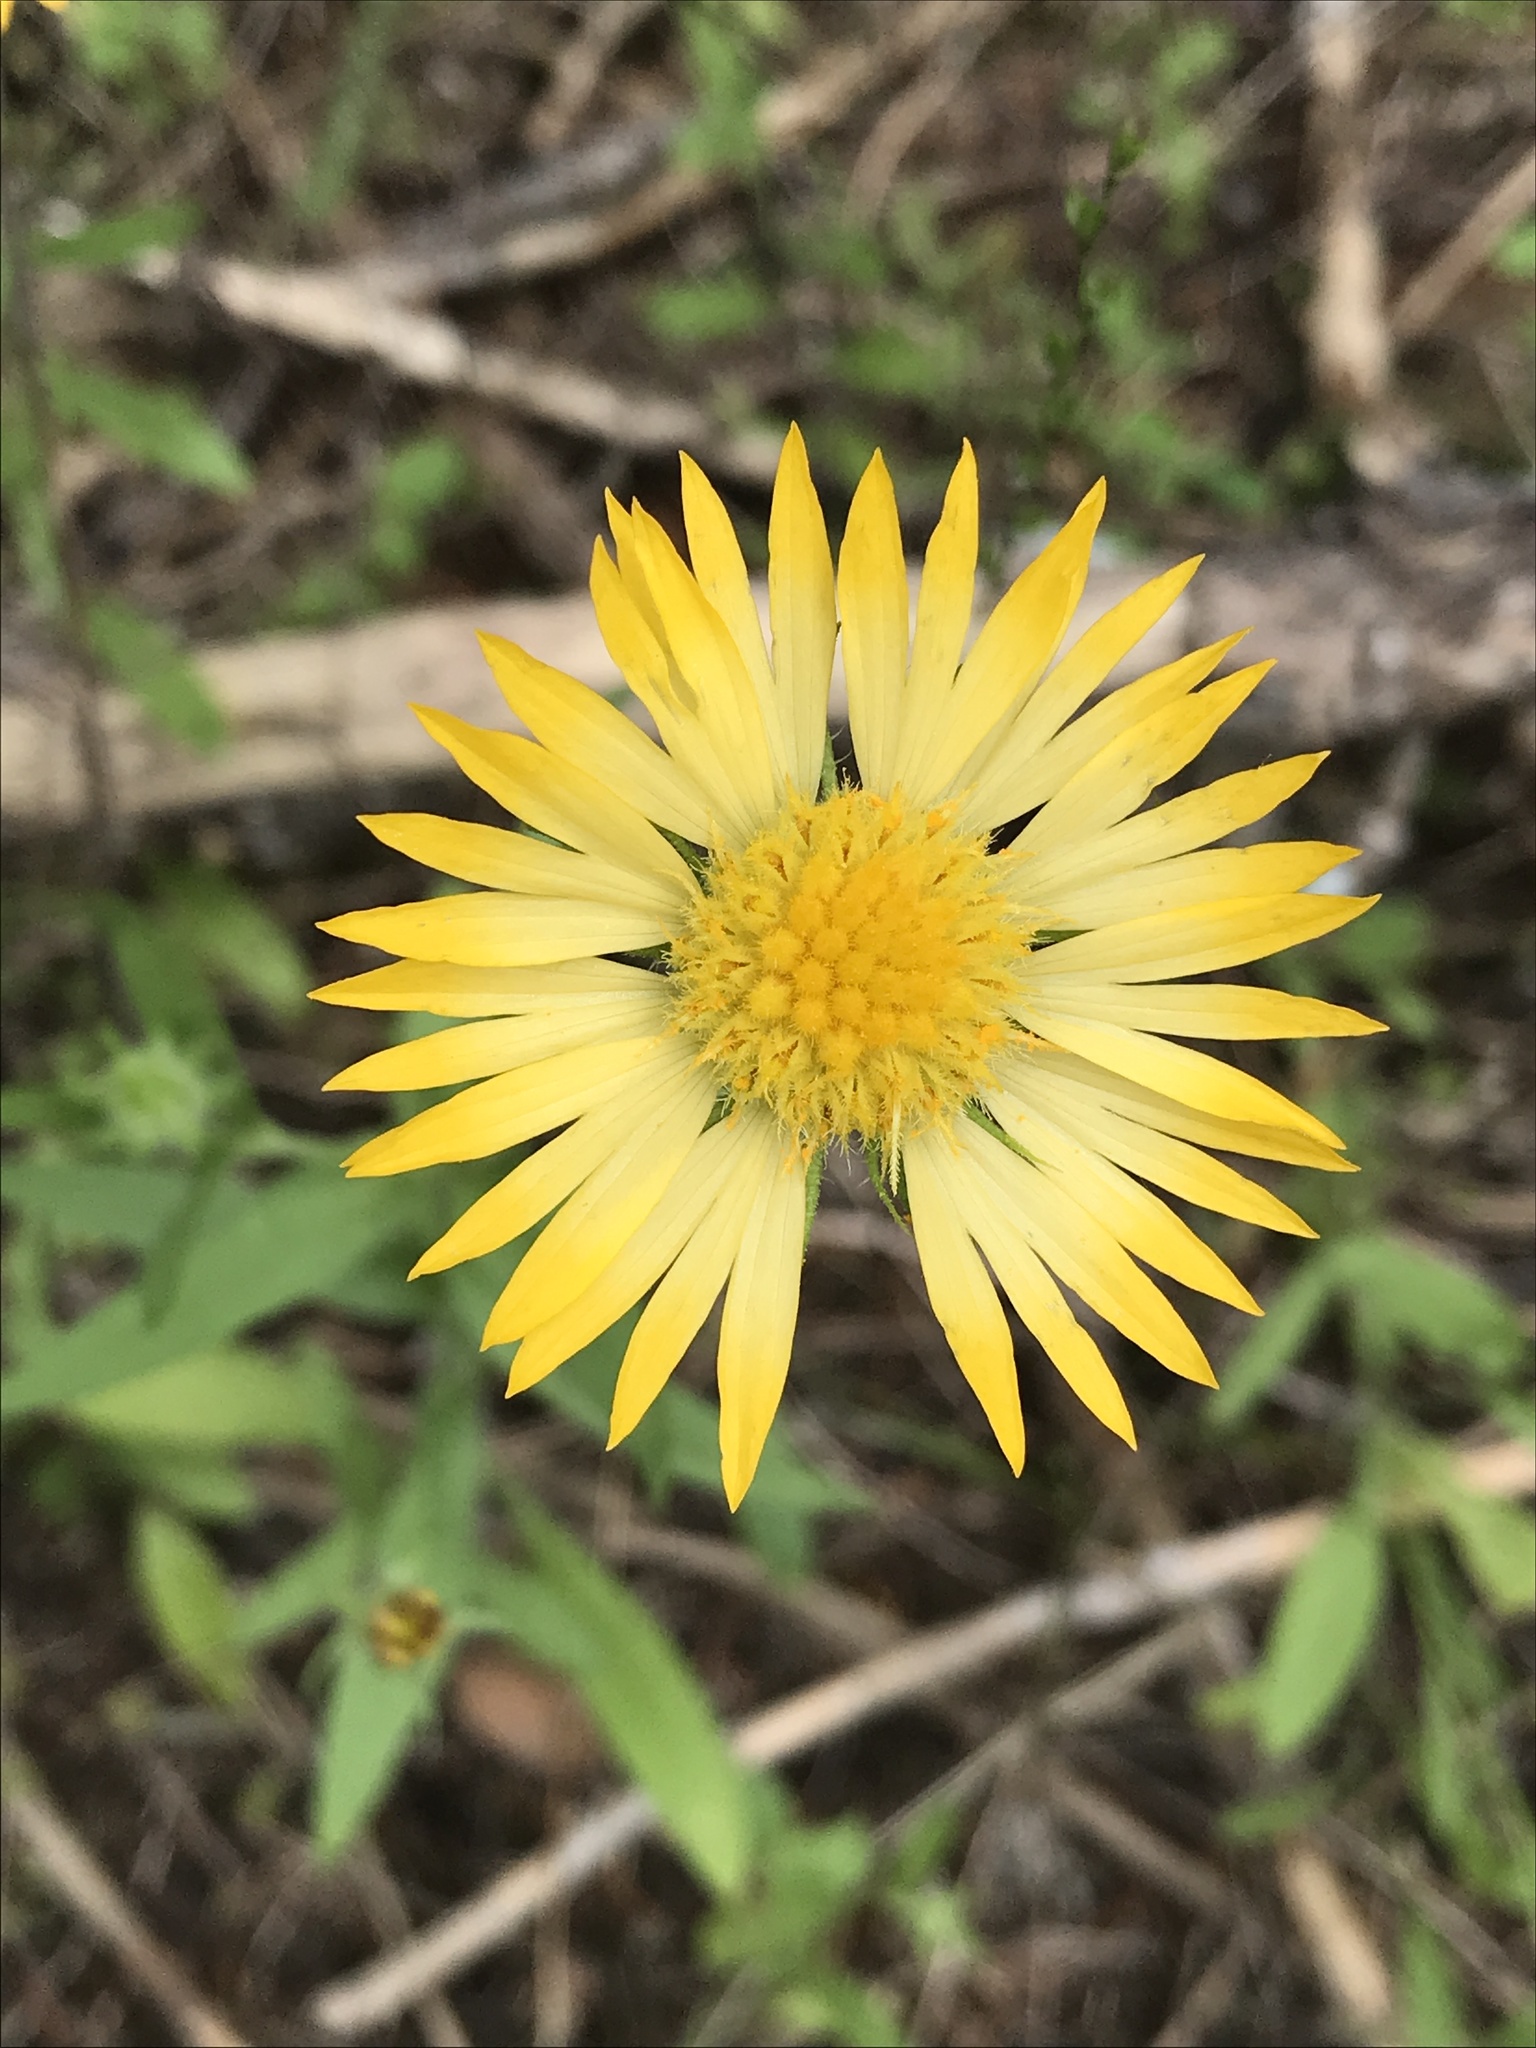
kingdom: Plantae
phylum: Tracheophyta
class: Magnoliopsida
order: Asterales
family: Asteraceae
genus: Gaillardia
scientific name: Gaillardia pulchella
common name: Firewheel
